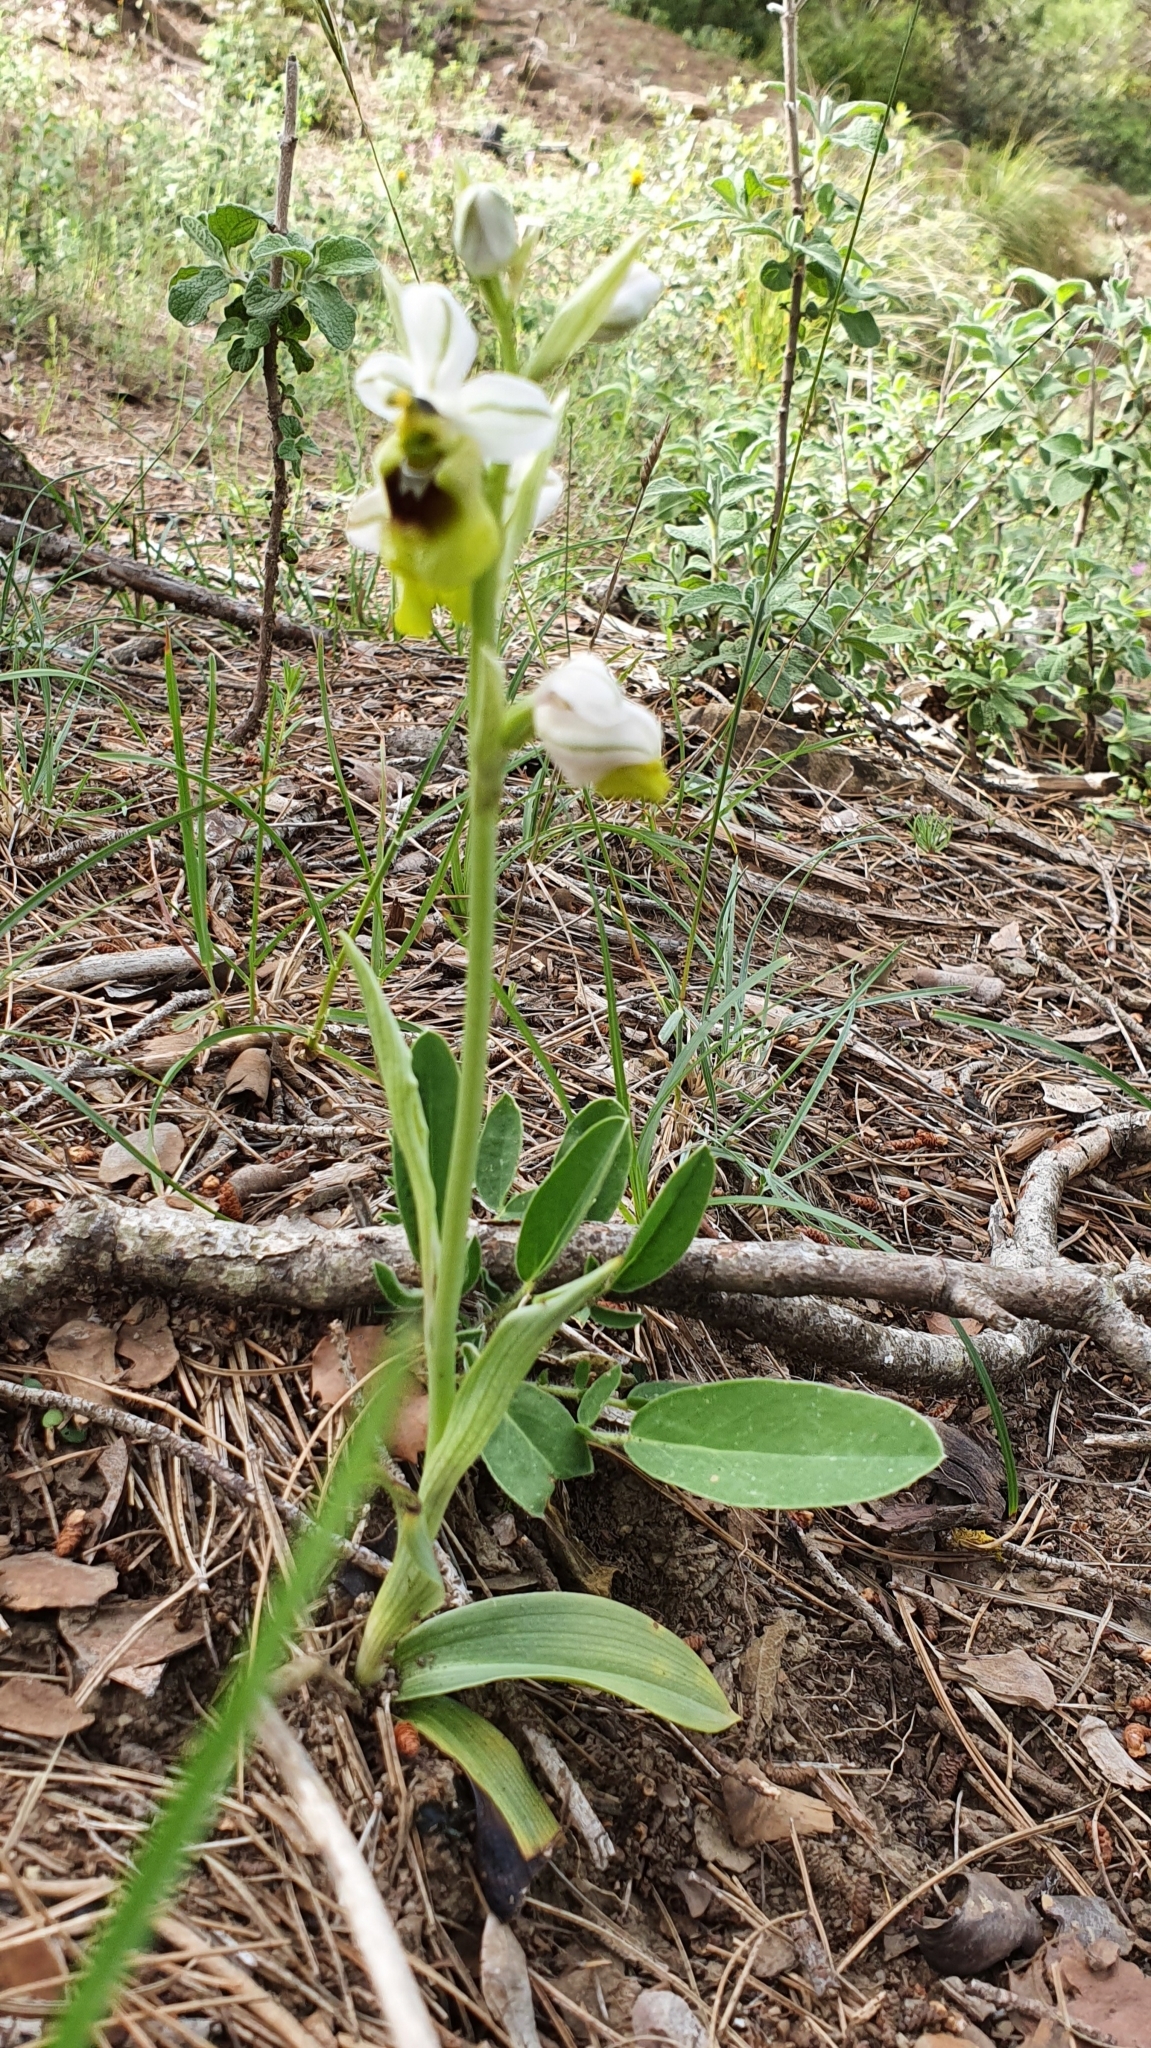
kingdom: Plantae
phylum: Tracheophyta
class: Liliopsida
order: Asparagales
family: Orchidaceae
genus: Ophrys
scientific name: Ophrys tenthredinifera
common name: Sawfly orchid
